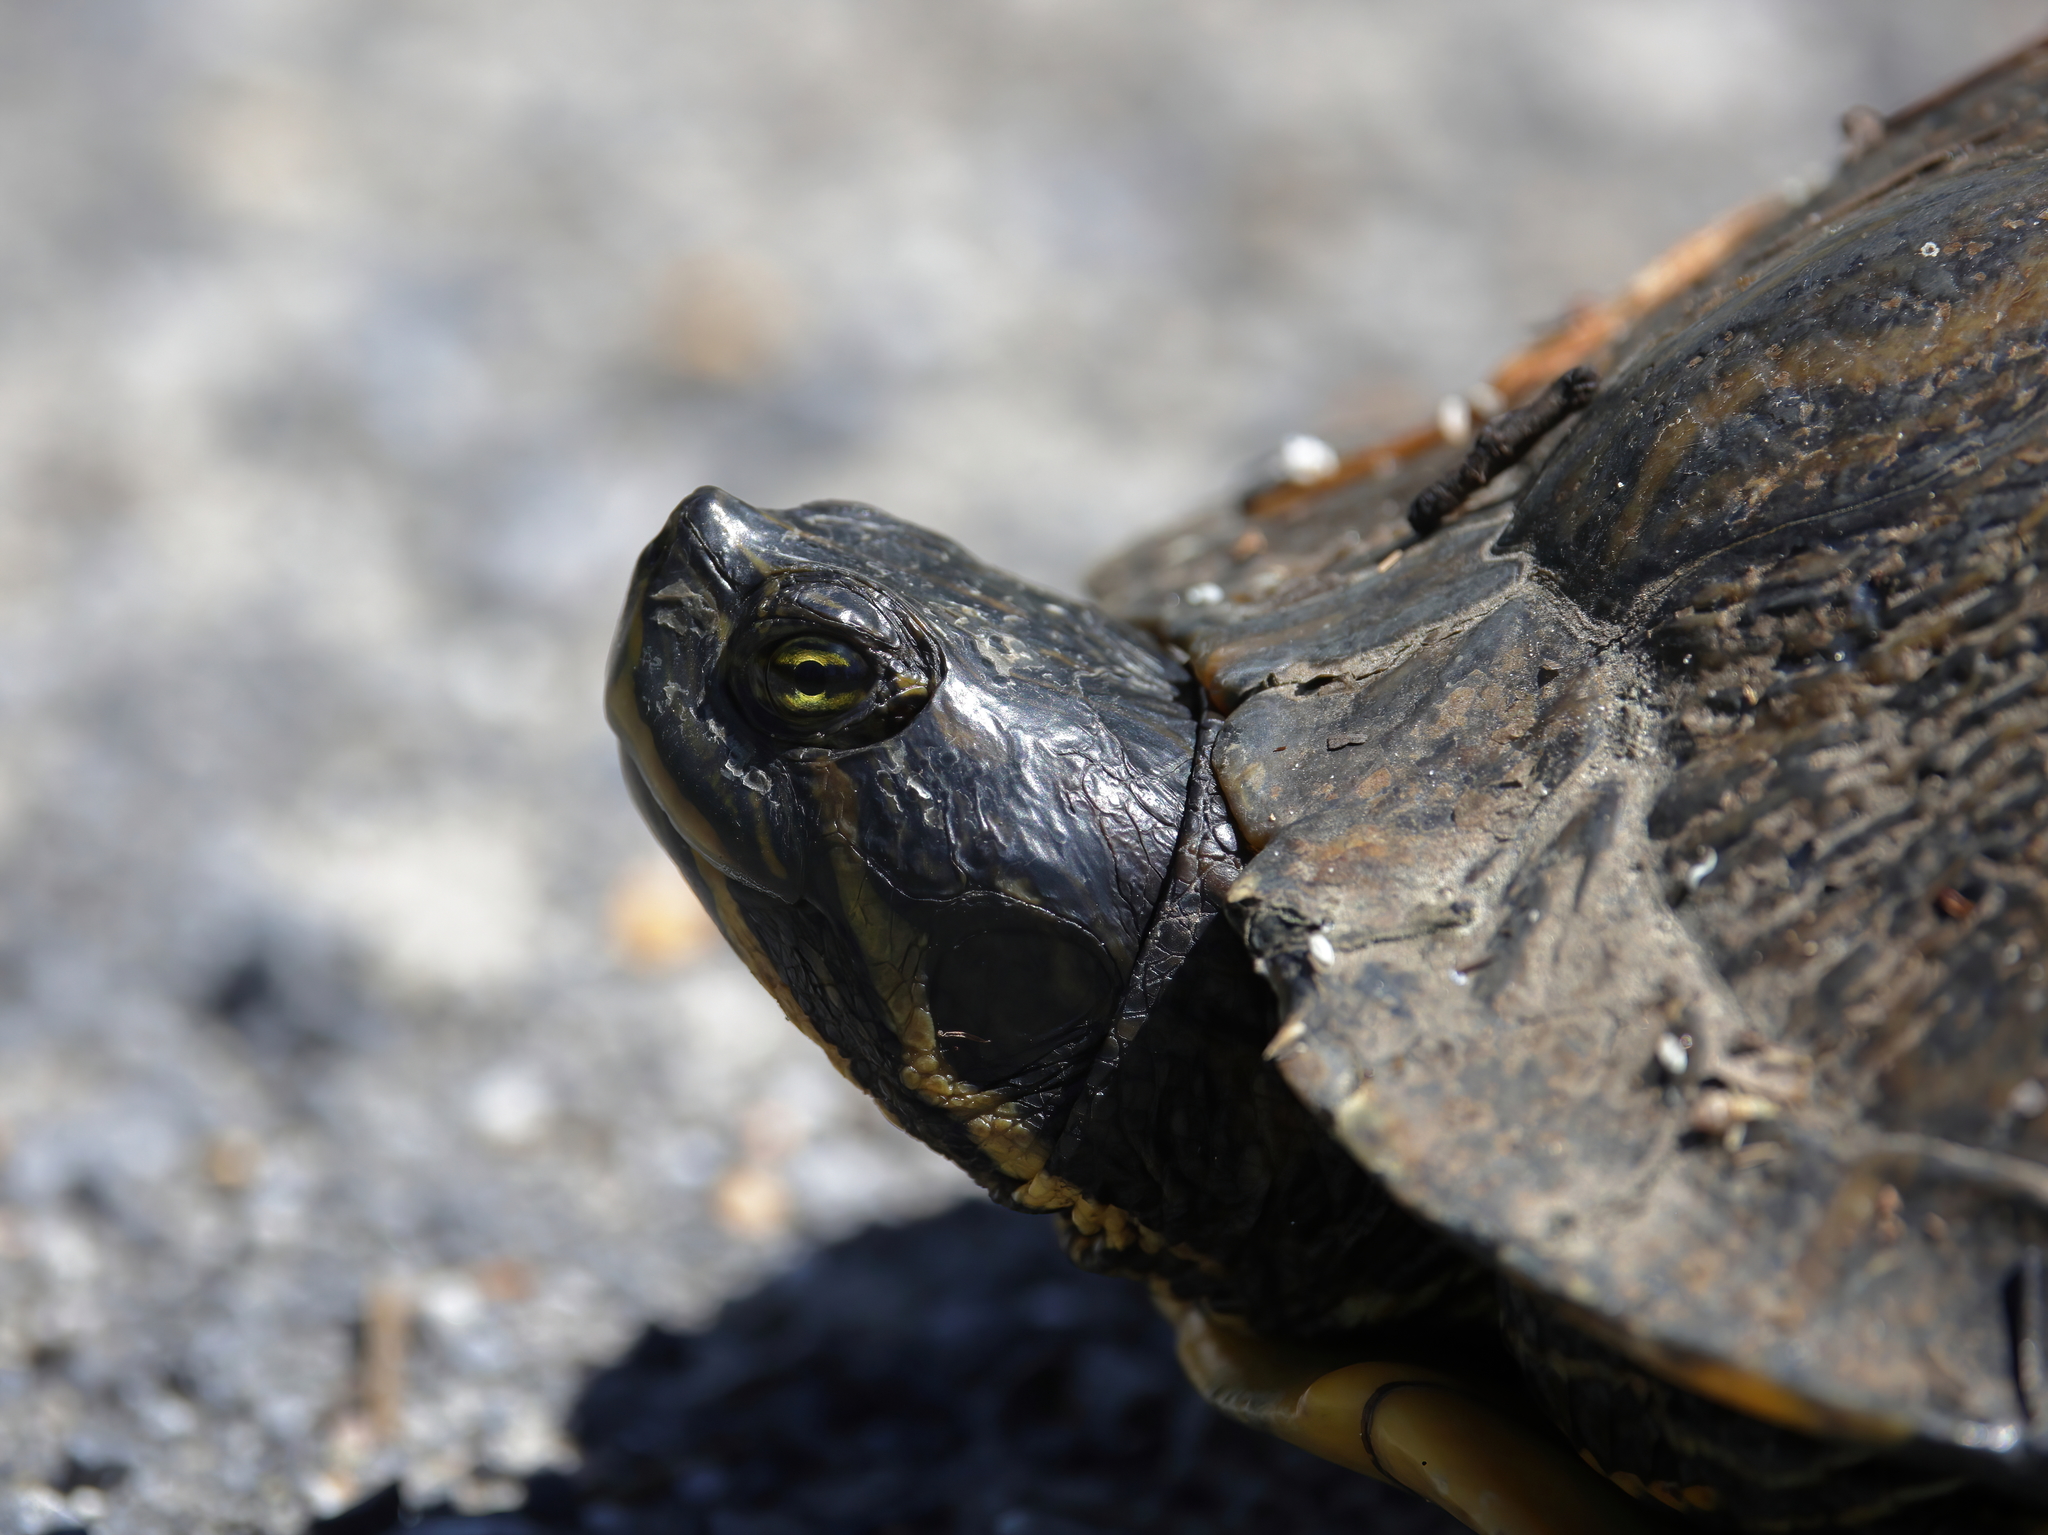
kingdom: Animalia
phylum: Chordata
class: Testudines
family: Emydidae
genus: Trachemys
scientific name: Trachemys scripta
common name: Slider
